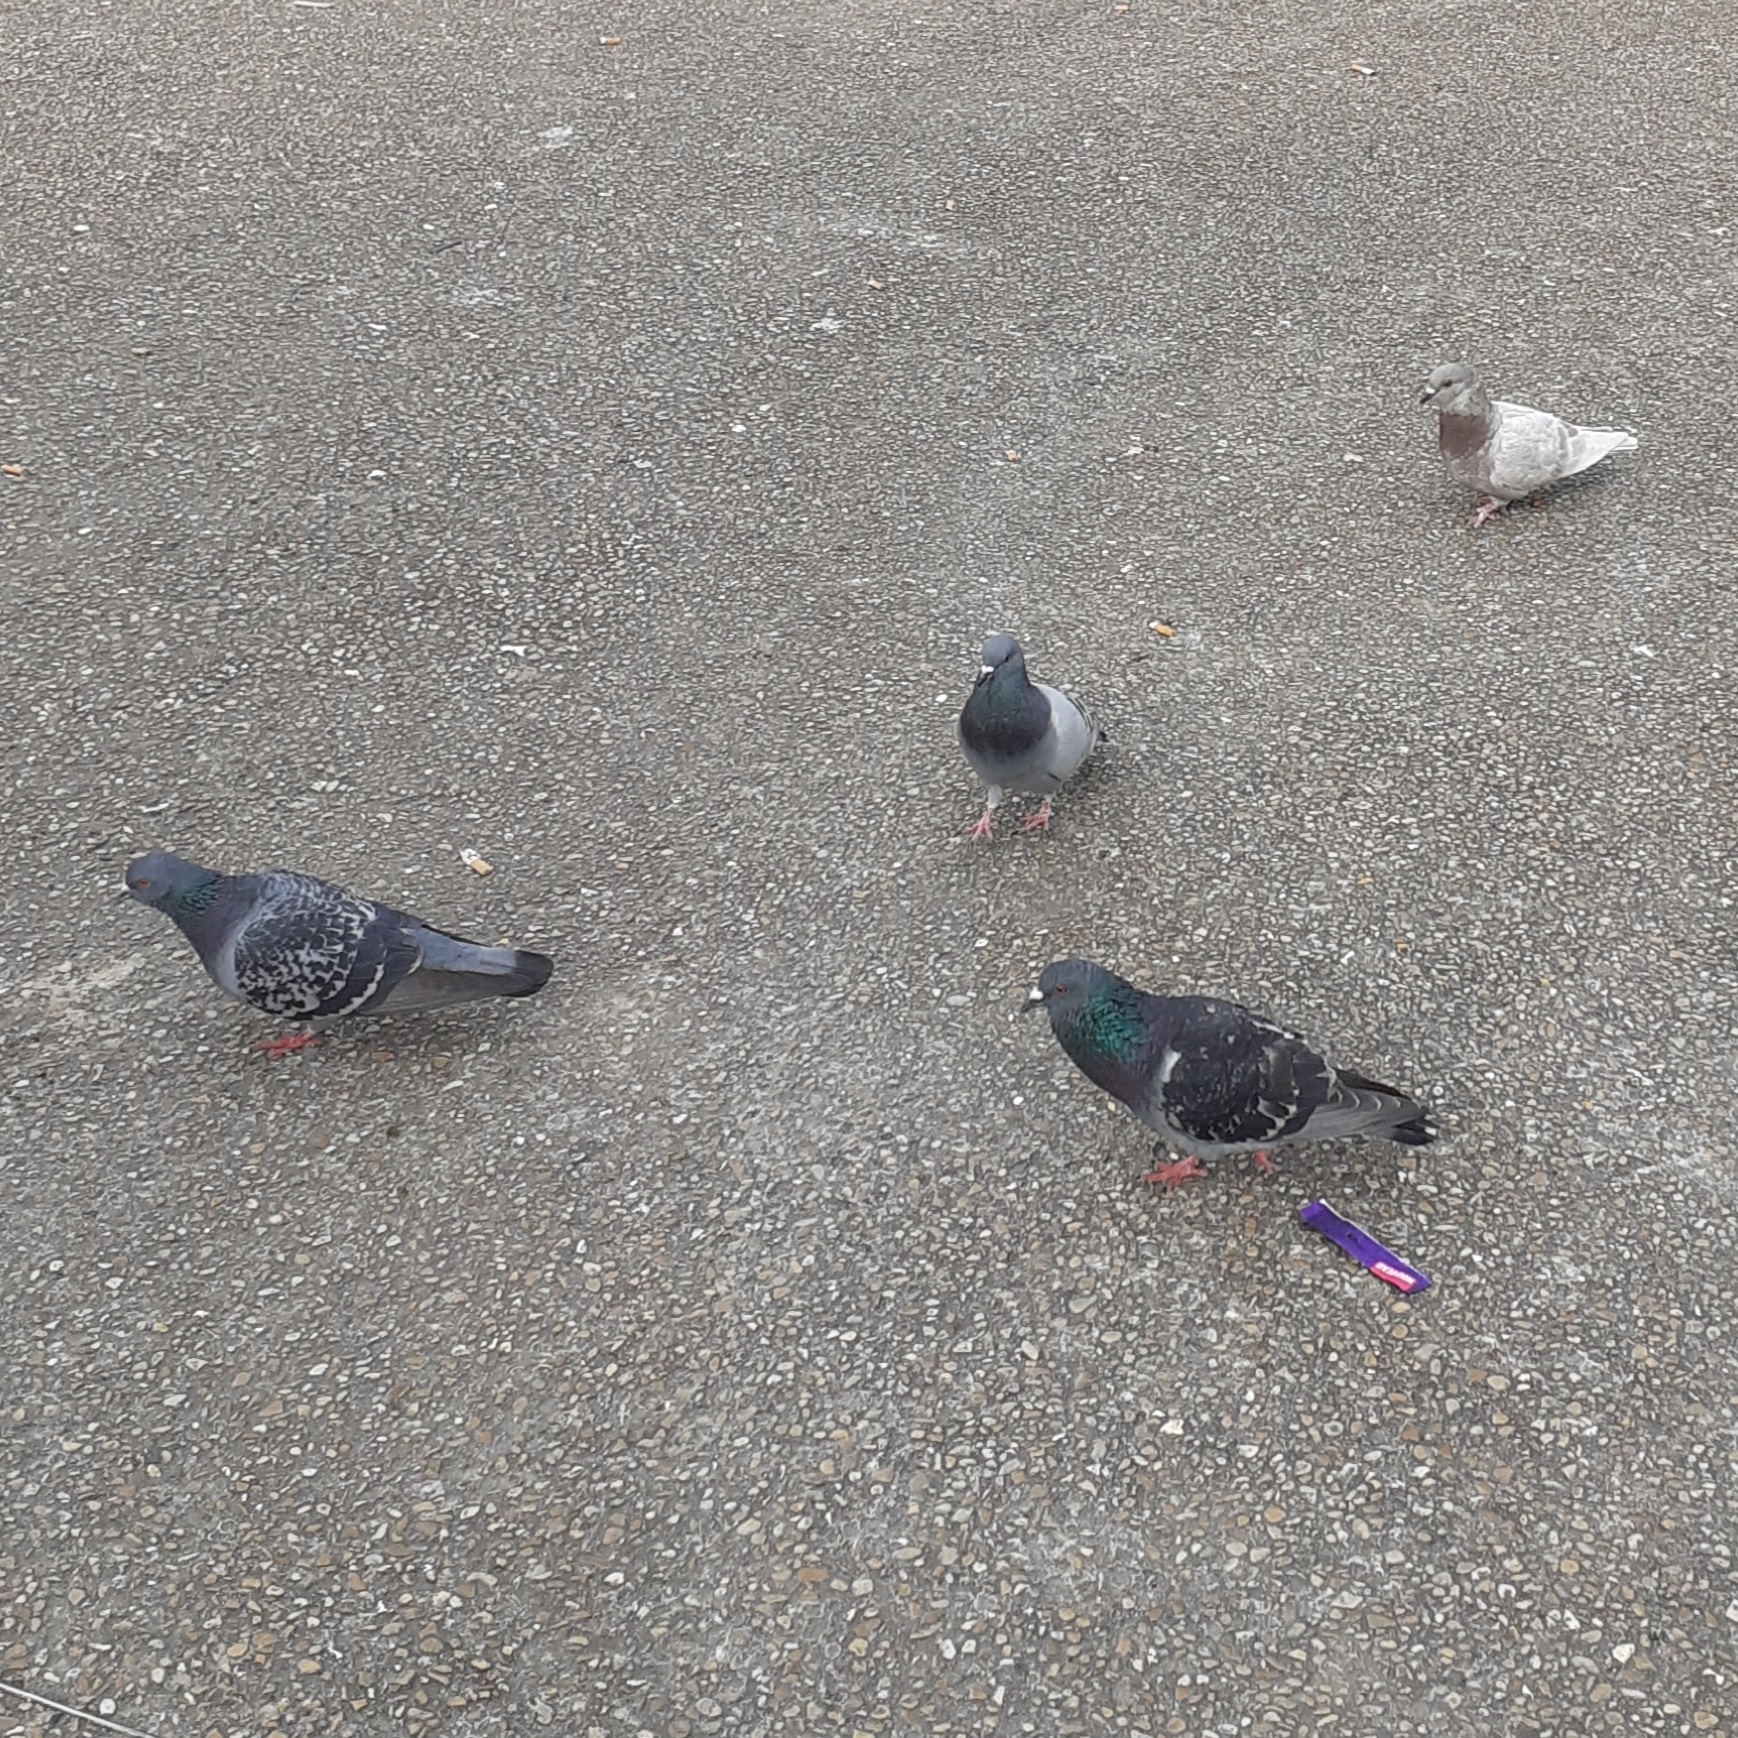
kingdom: Animalia
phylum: Chordata
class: Aves
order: Columbiformes
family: Columbidae
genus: Columba
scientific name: Columba livia
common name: Rock pigeon
